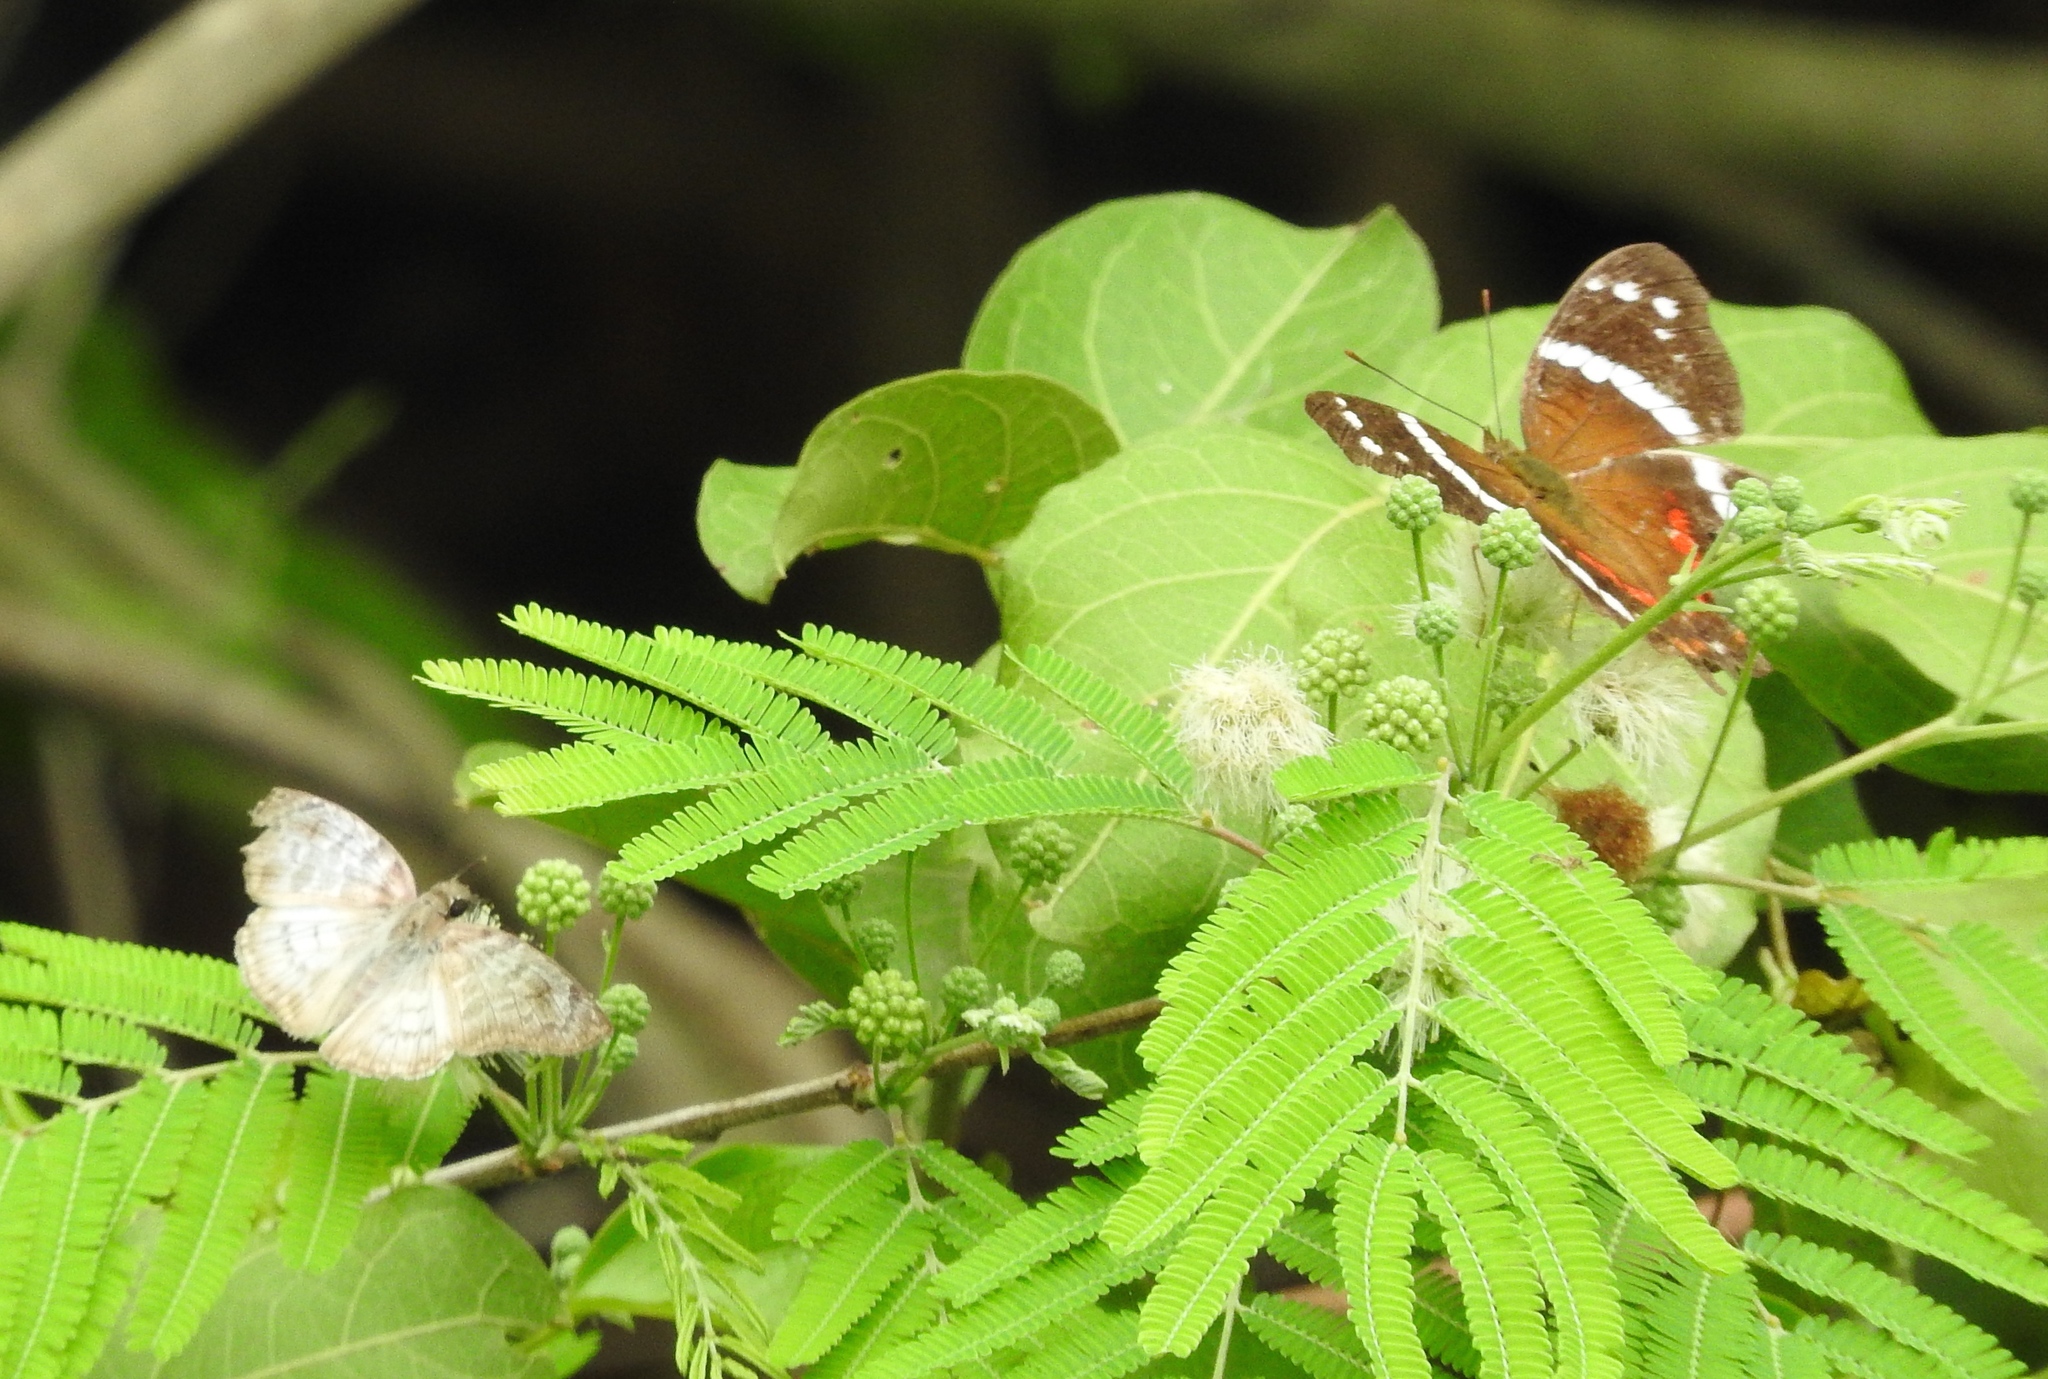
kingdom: Animalia
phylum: Arthropoda
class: Insecta
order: Lepidoptera
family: Nymphalidae
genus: Anartia
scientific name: Anartia fatima
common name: Banded peacock
